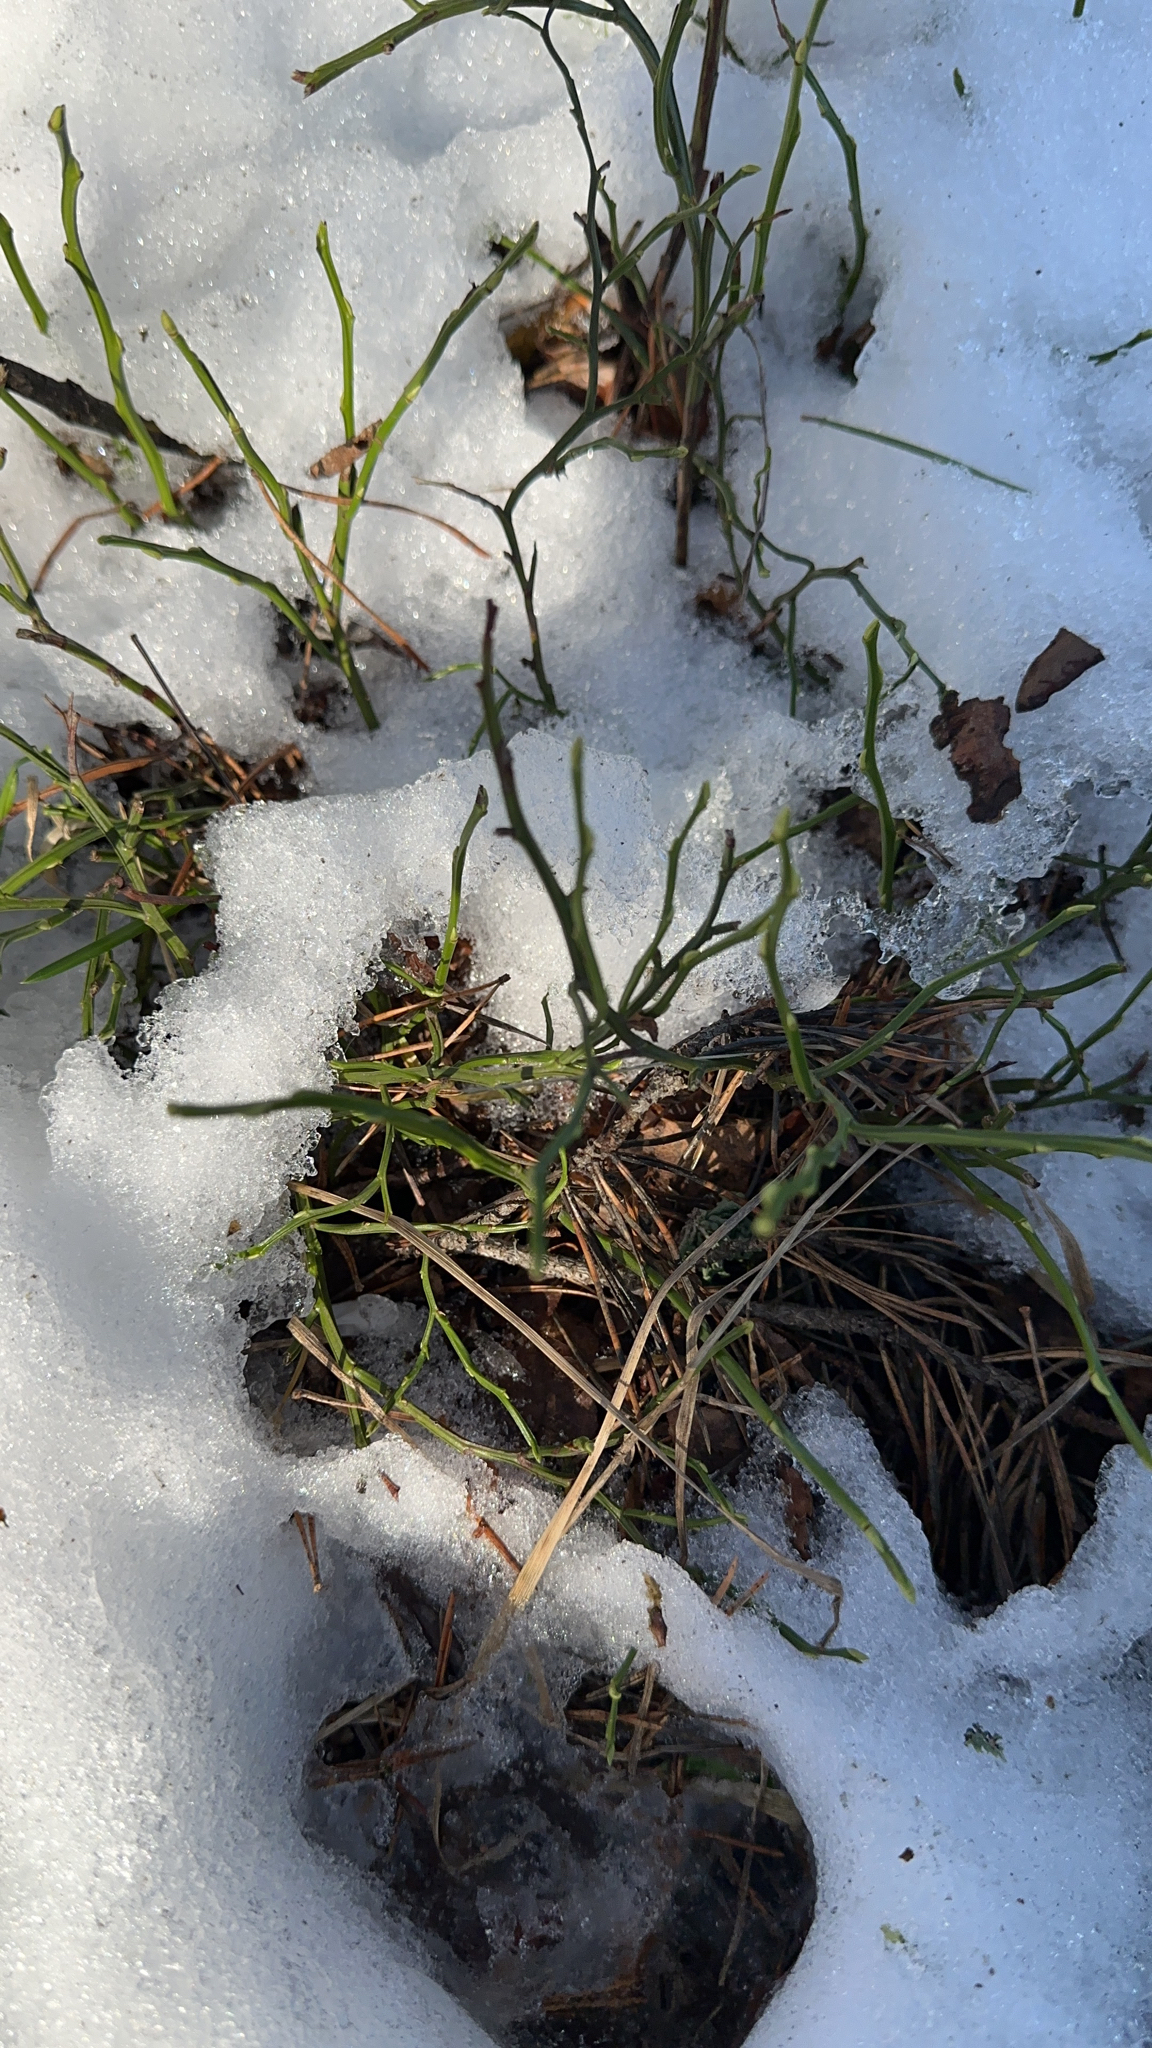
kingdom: Plantae
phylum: Tracheophyta
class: Magnoliopsida
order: Ericales
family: Ericaceae
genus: Vaccinium
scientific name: Vaccinium myrtillus
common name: Bilberry
